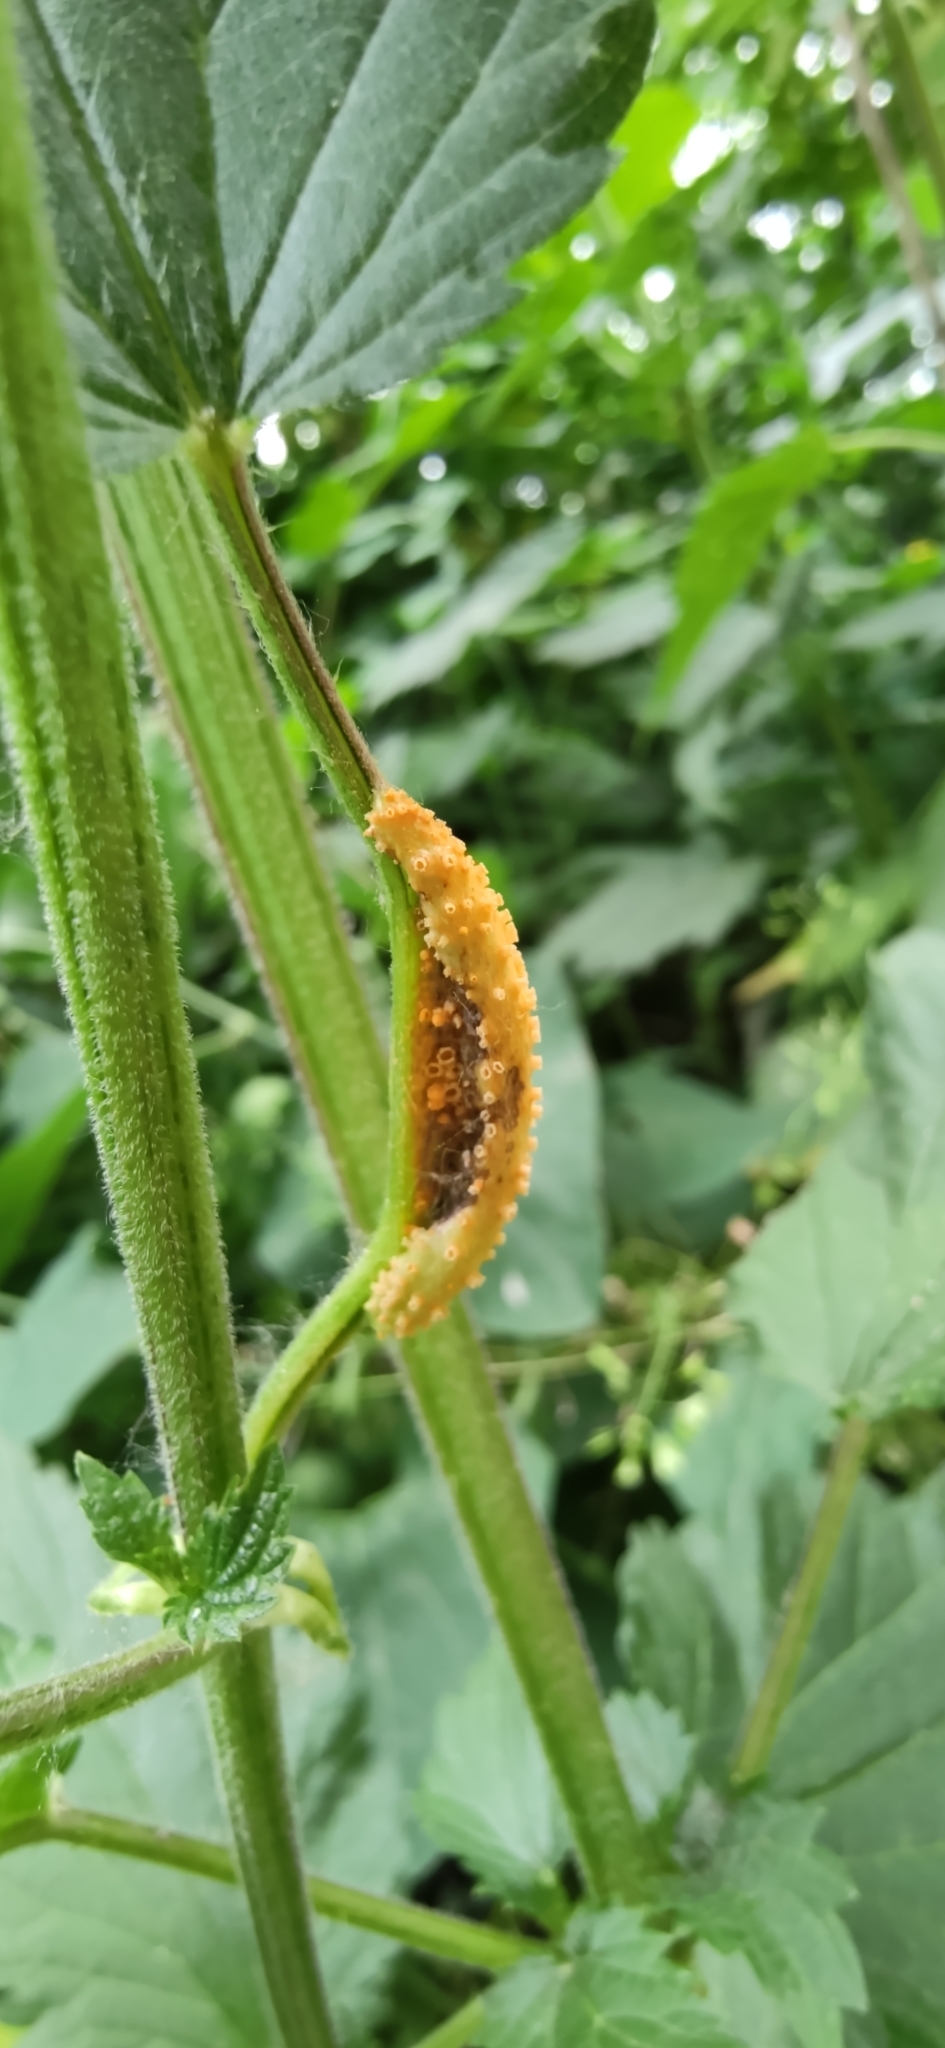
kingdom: Fungi
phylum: Basidiomycota
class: Pucciniomycetes
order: Pucciniales
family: Pucciniaceae
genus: Puccinia
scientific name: Puccinia urticata
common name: Nettle clustercup rust fungus
